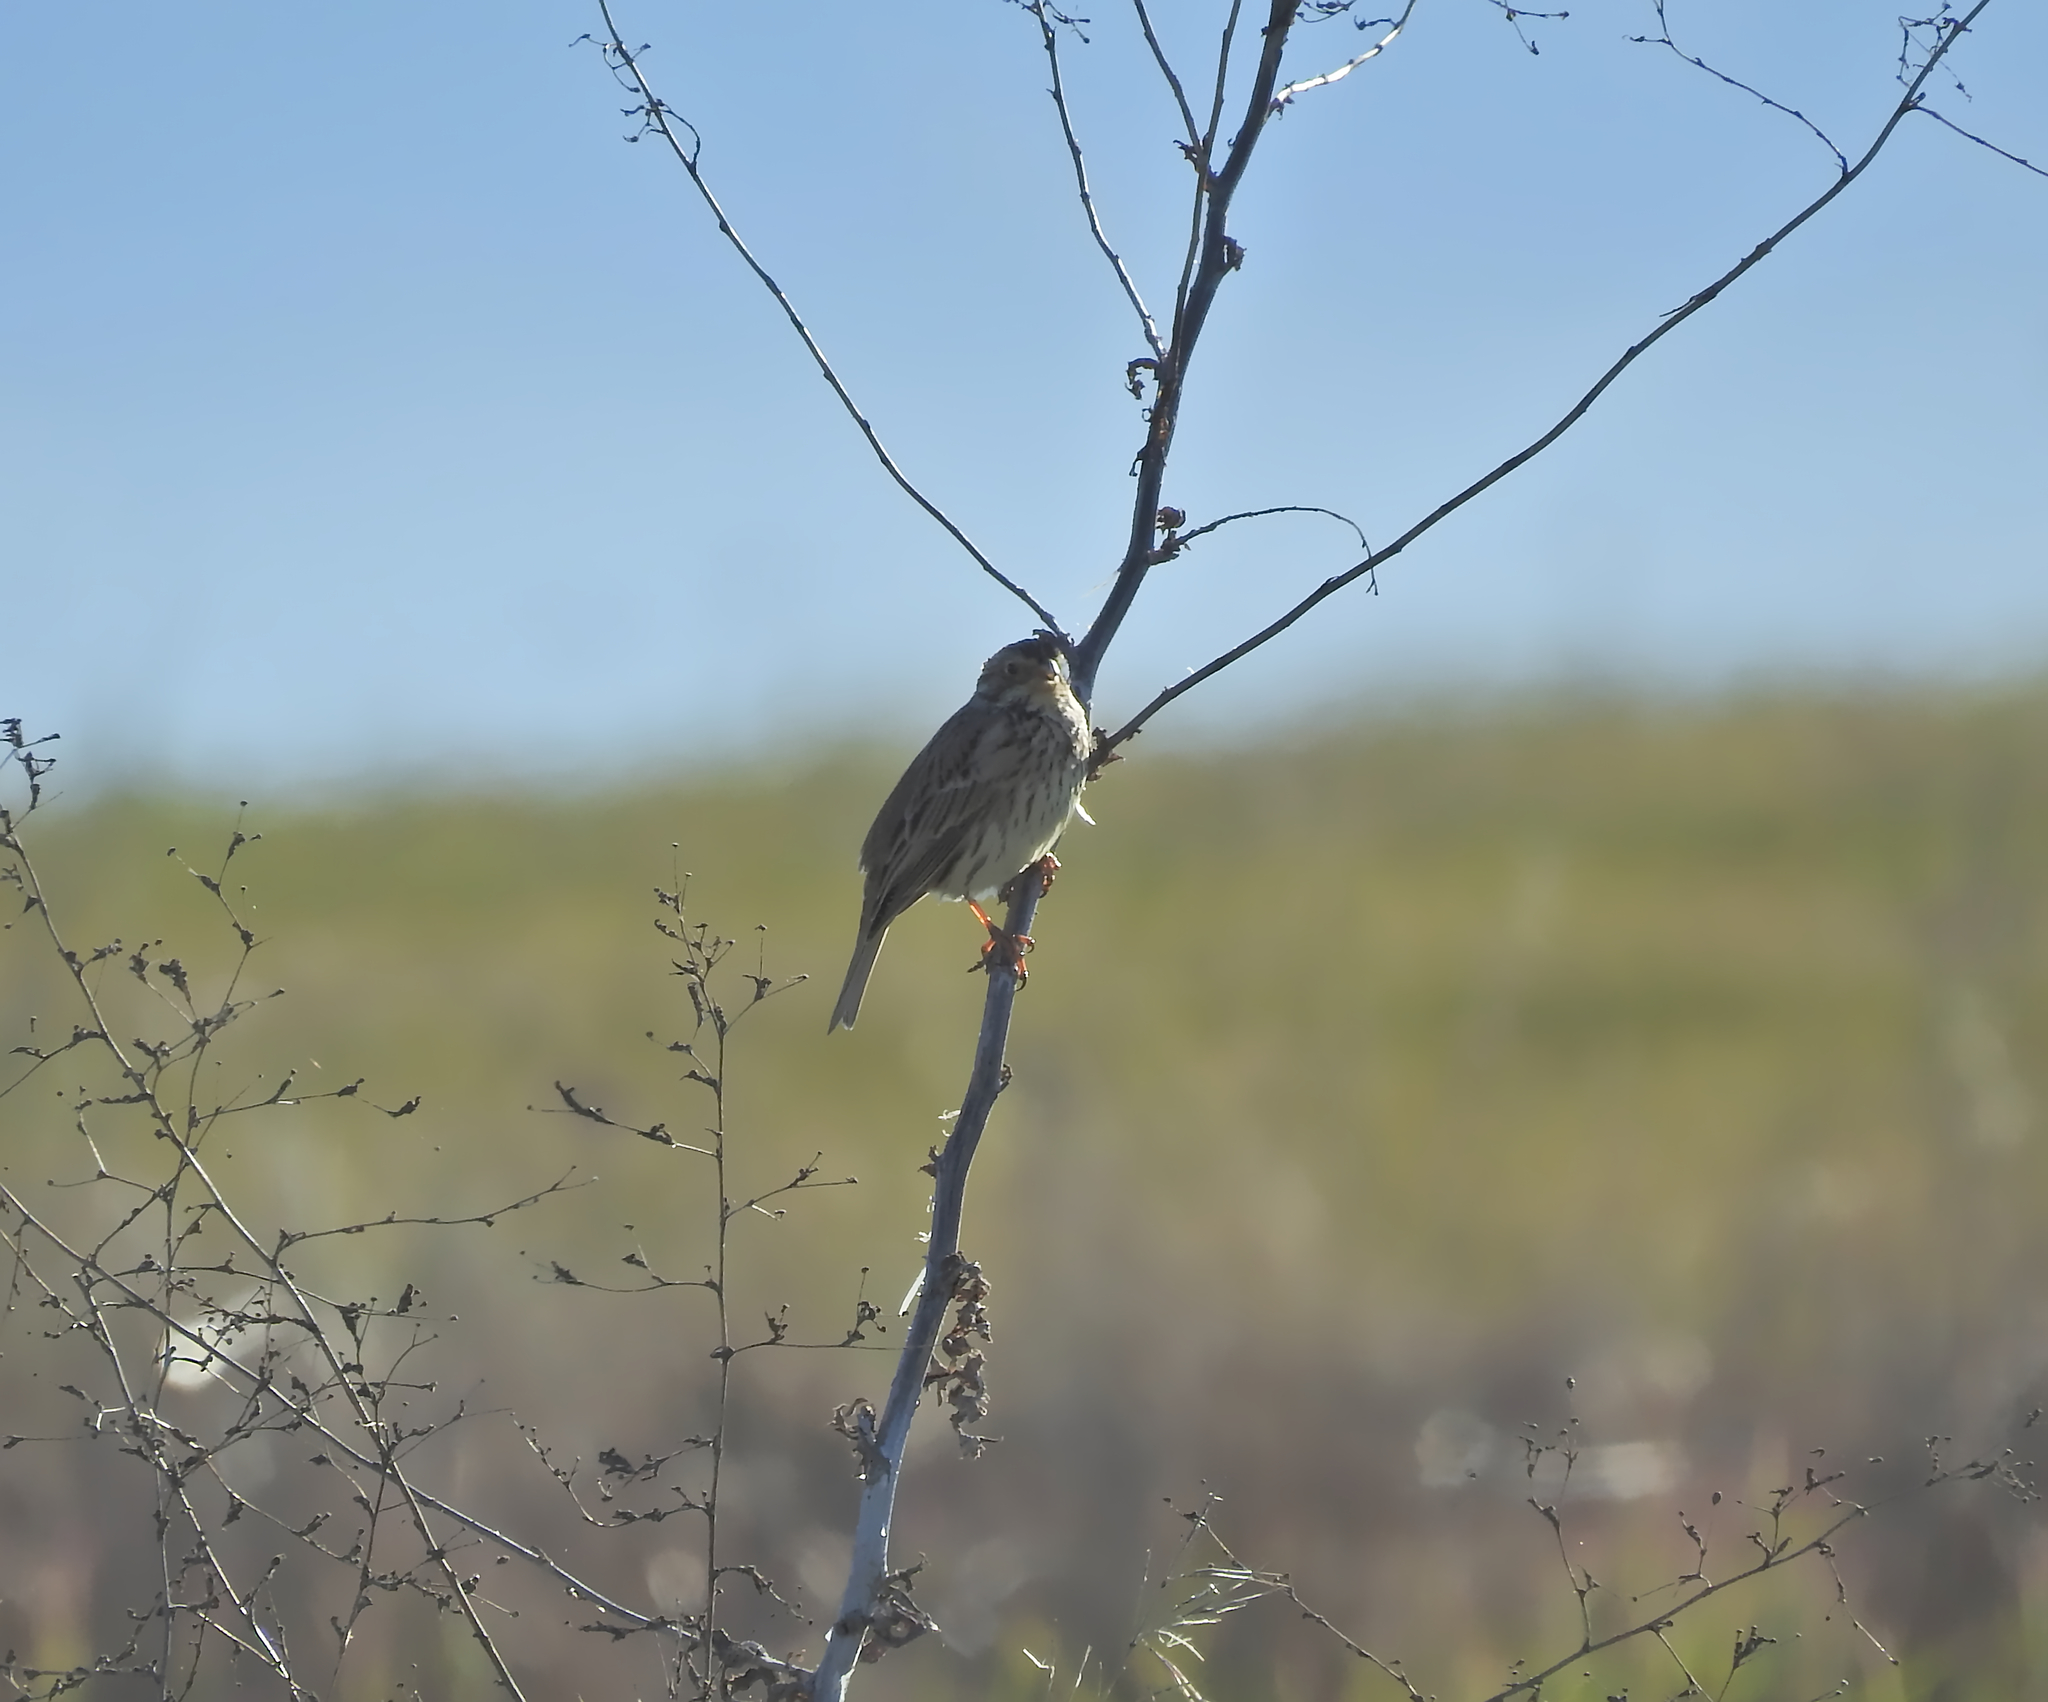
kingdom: Animalia
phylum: Chordata
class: Aves
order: Passeriformes
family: Emberizidae
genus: Emberiza
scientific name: Emberiza calandra
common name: Corn bunting
